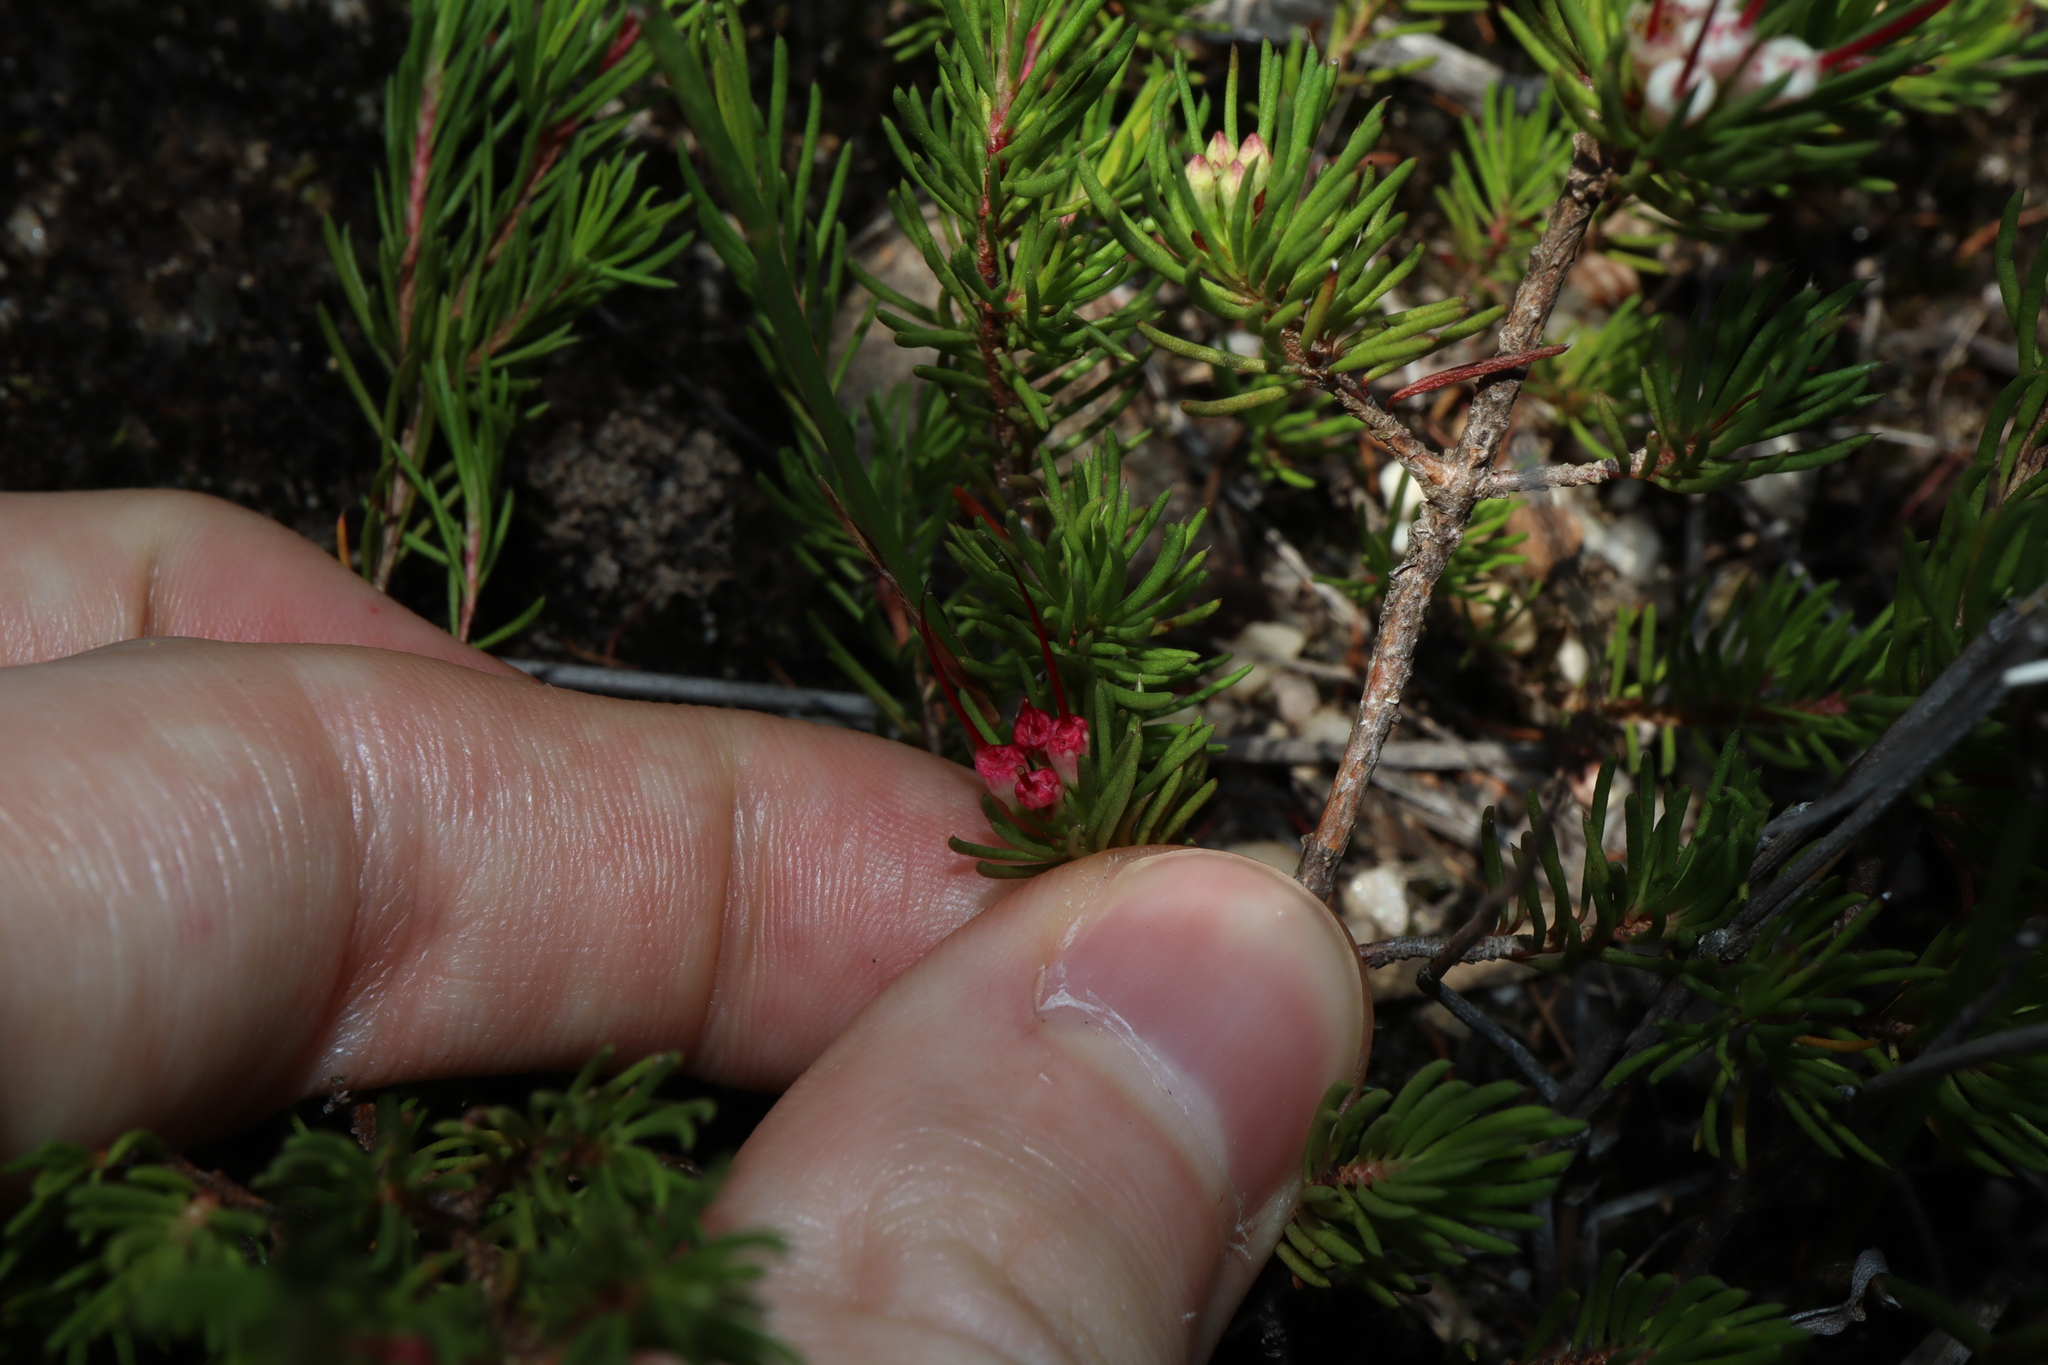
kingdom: Plantae
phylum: Tracheophyta
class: Magnoliopsida
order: Myrtales
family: Myrtaceae
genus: Darwinia
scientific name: Darwinia fascicularis
